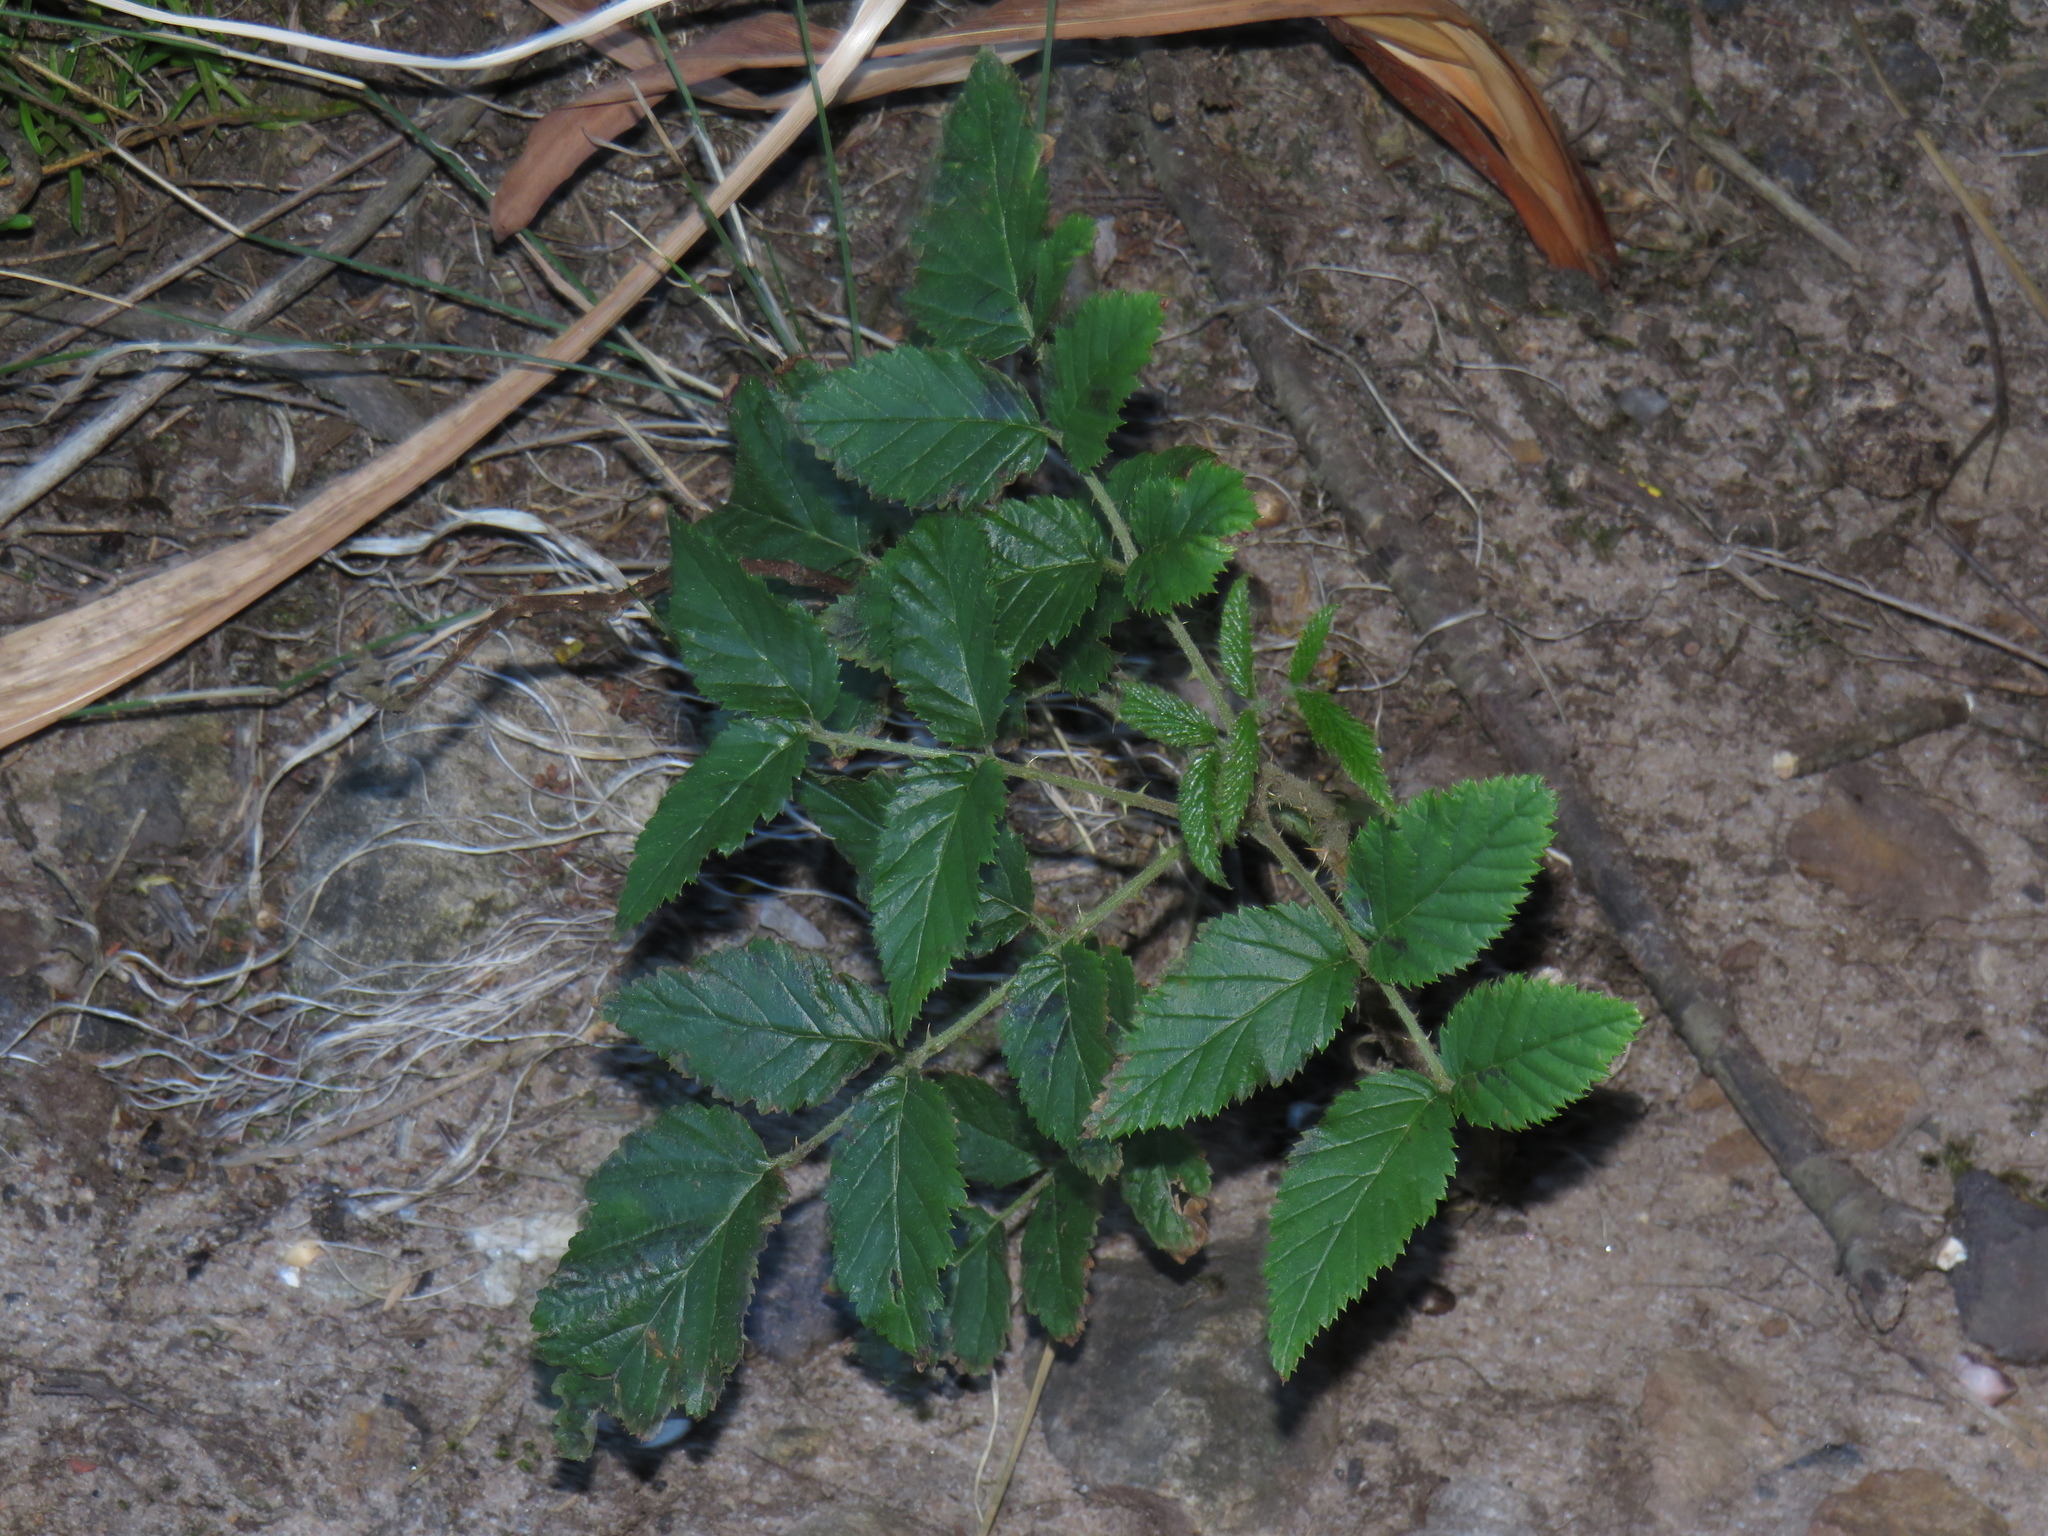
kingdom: Plantae
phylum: Tracheophyta
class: Magnoliopsida
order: Rosales
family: Rosaceae
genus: Rubus
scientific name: Rubus pinnatus
